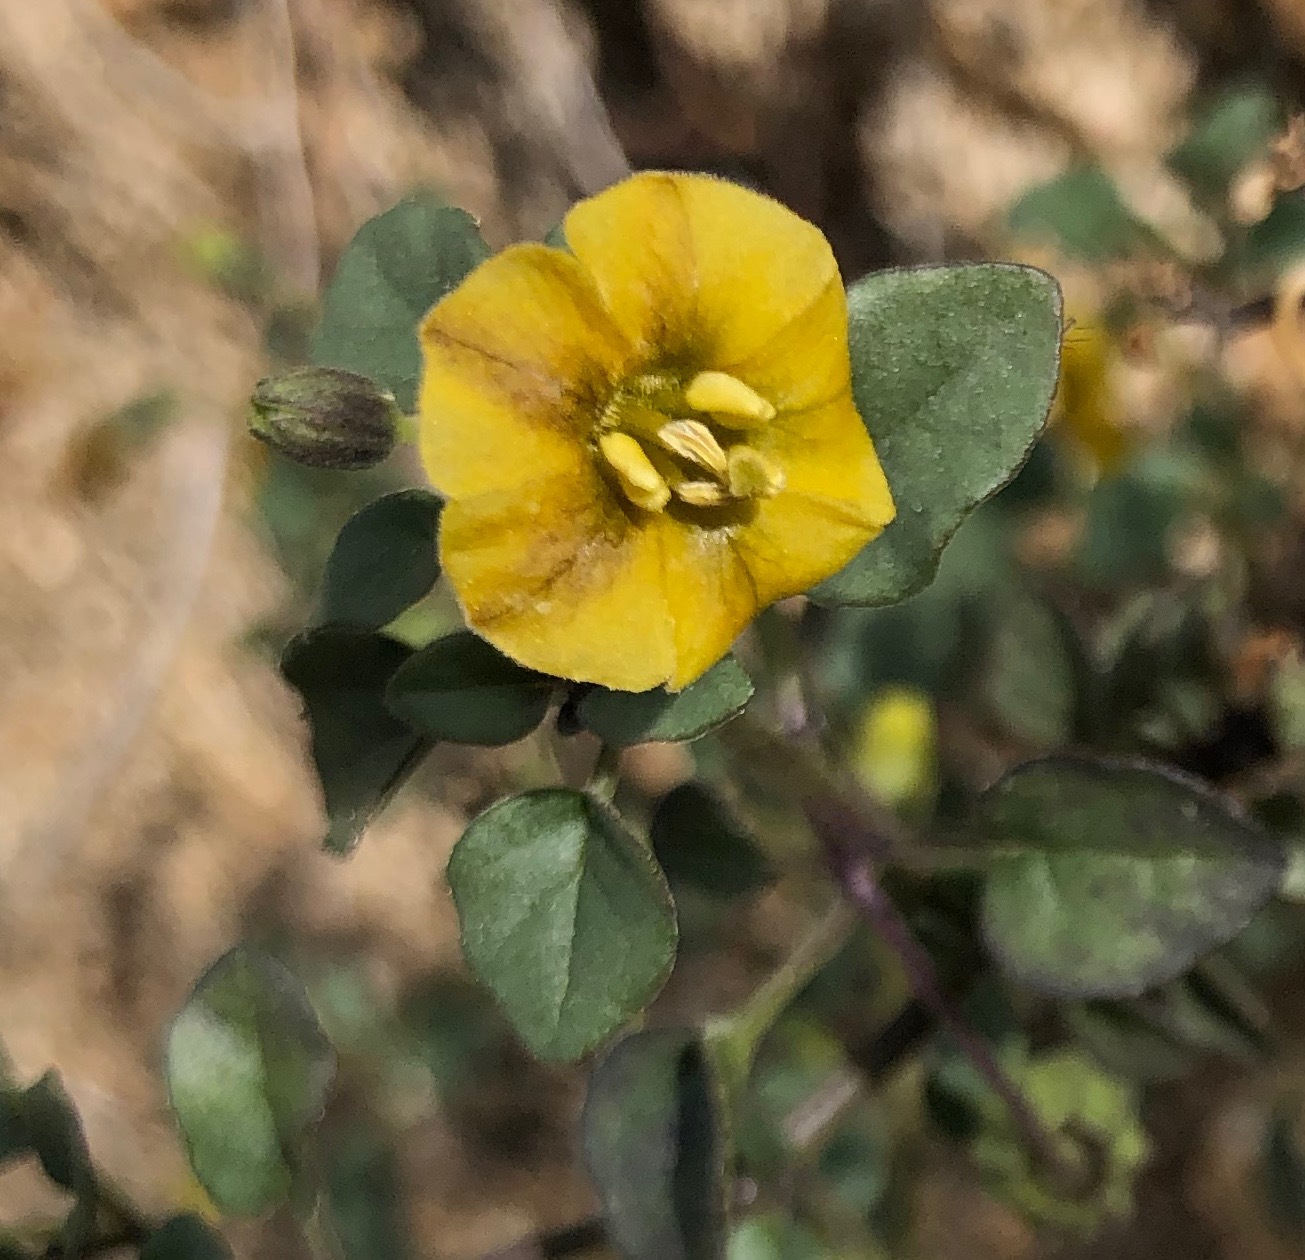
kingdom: Plantae
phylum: Tracheophyta
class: Magnoliopsida
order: Solanales
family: Solanaceae
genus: Physalis
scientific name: Physalis crassifolia
